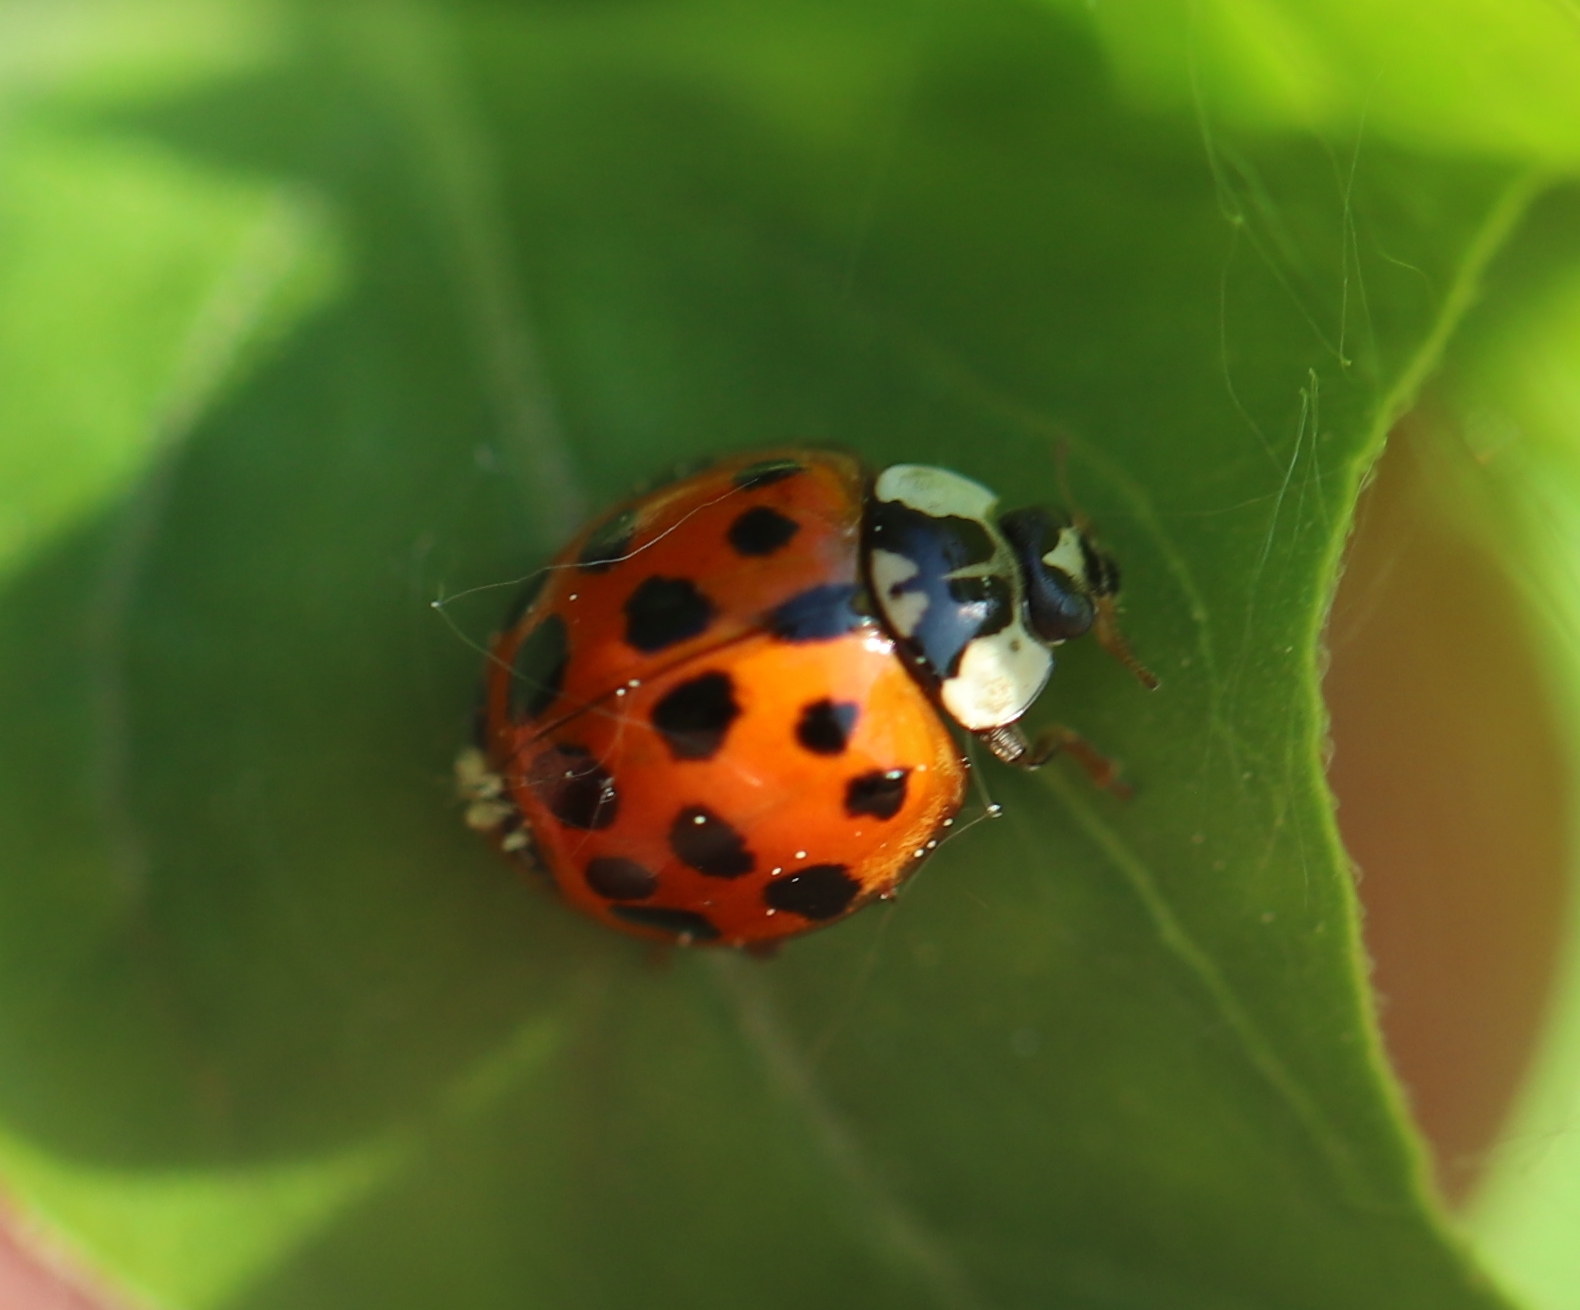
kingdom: Animalia
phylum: Arthropoda
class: Insecta
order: Coleoptera
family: Coccinellidae
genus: Harmonia
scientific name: Harmonia axyridis
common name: Harlequin ladybird
